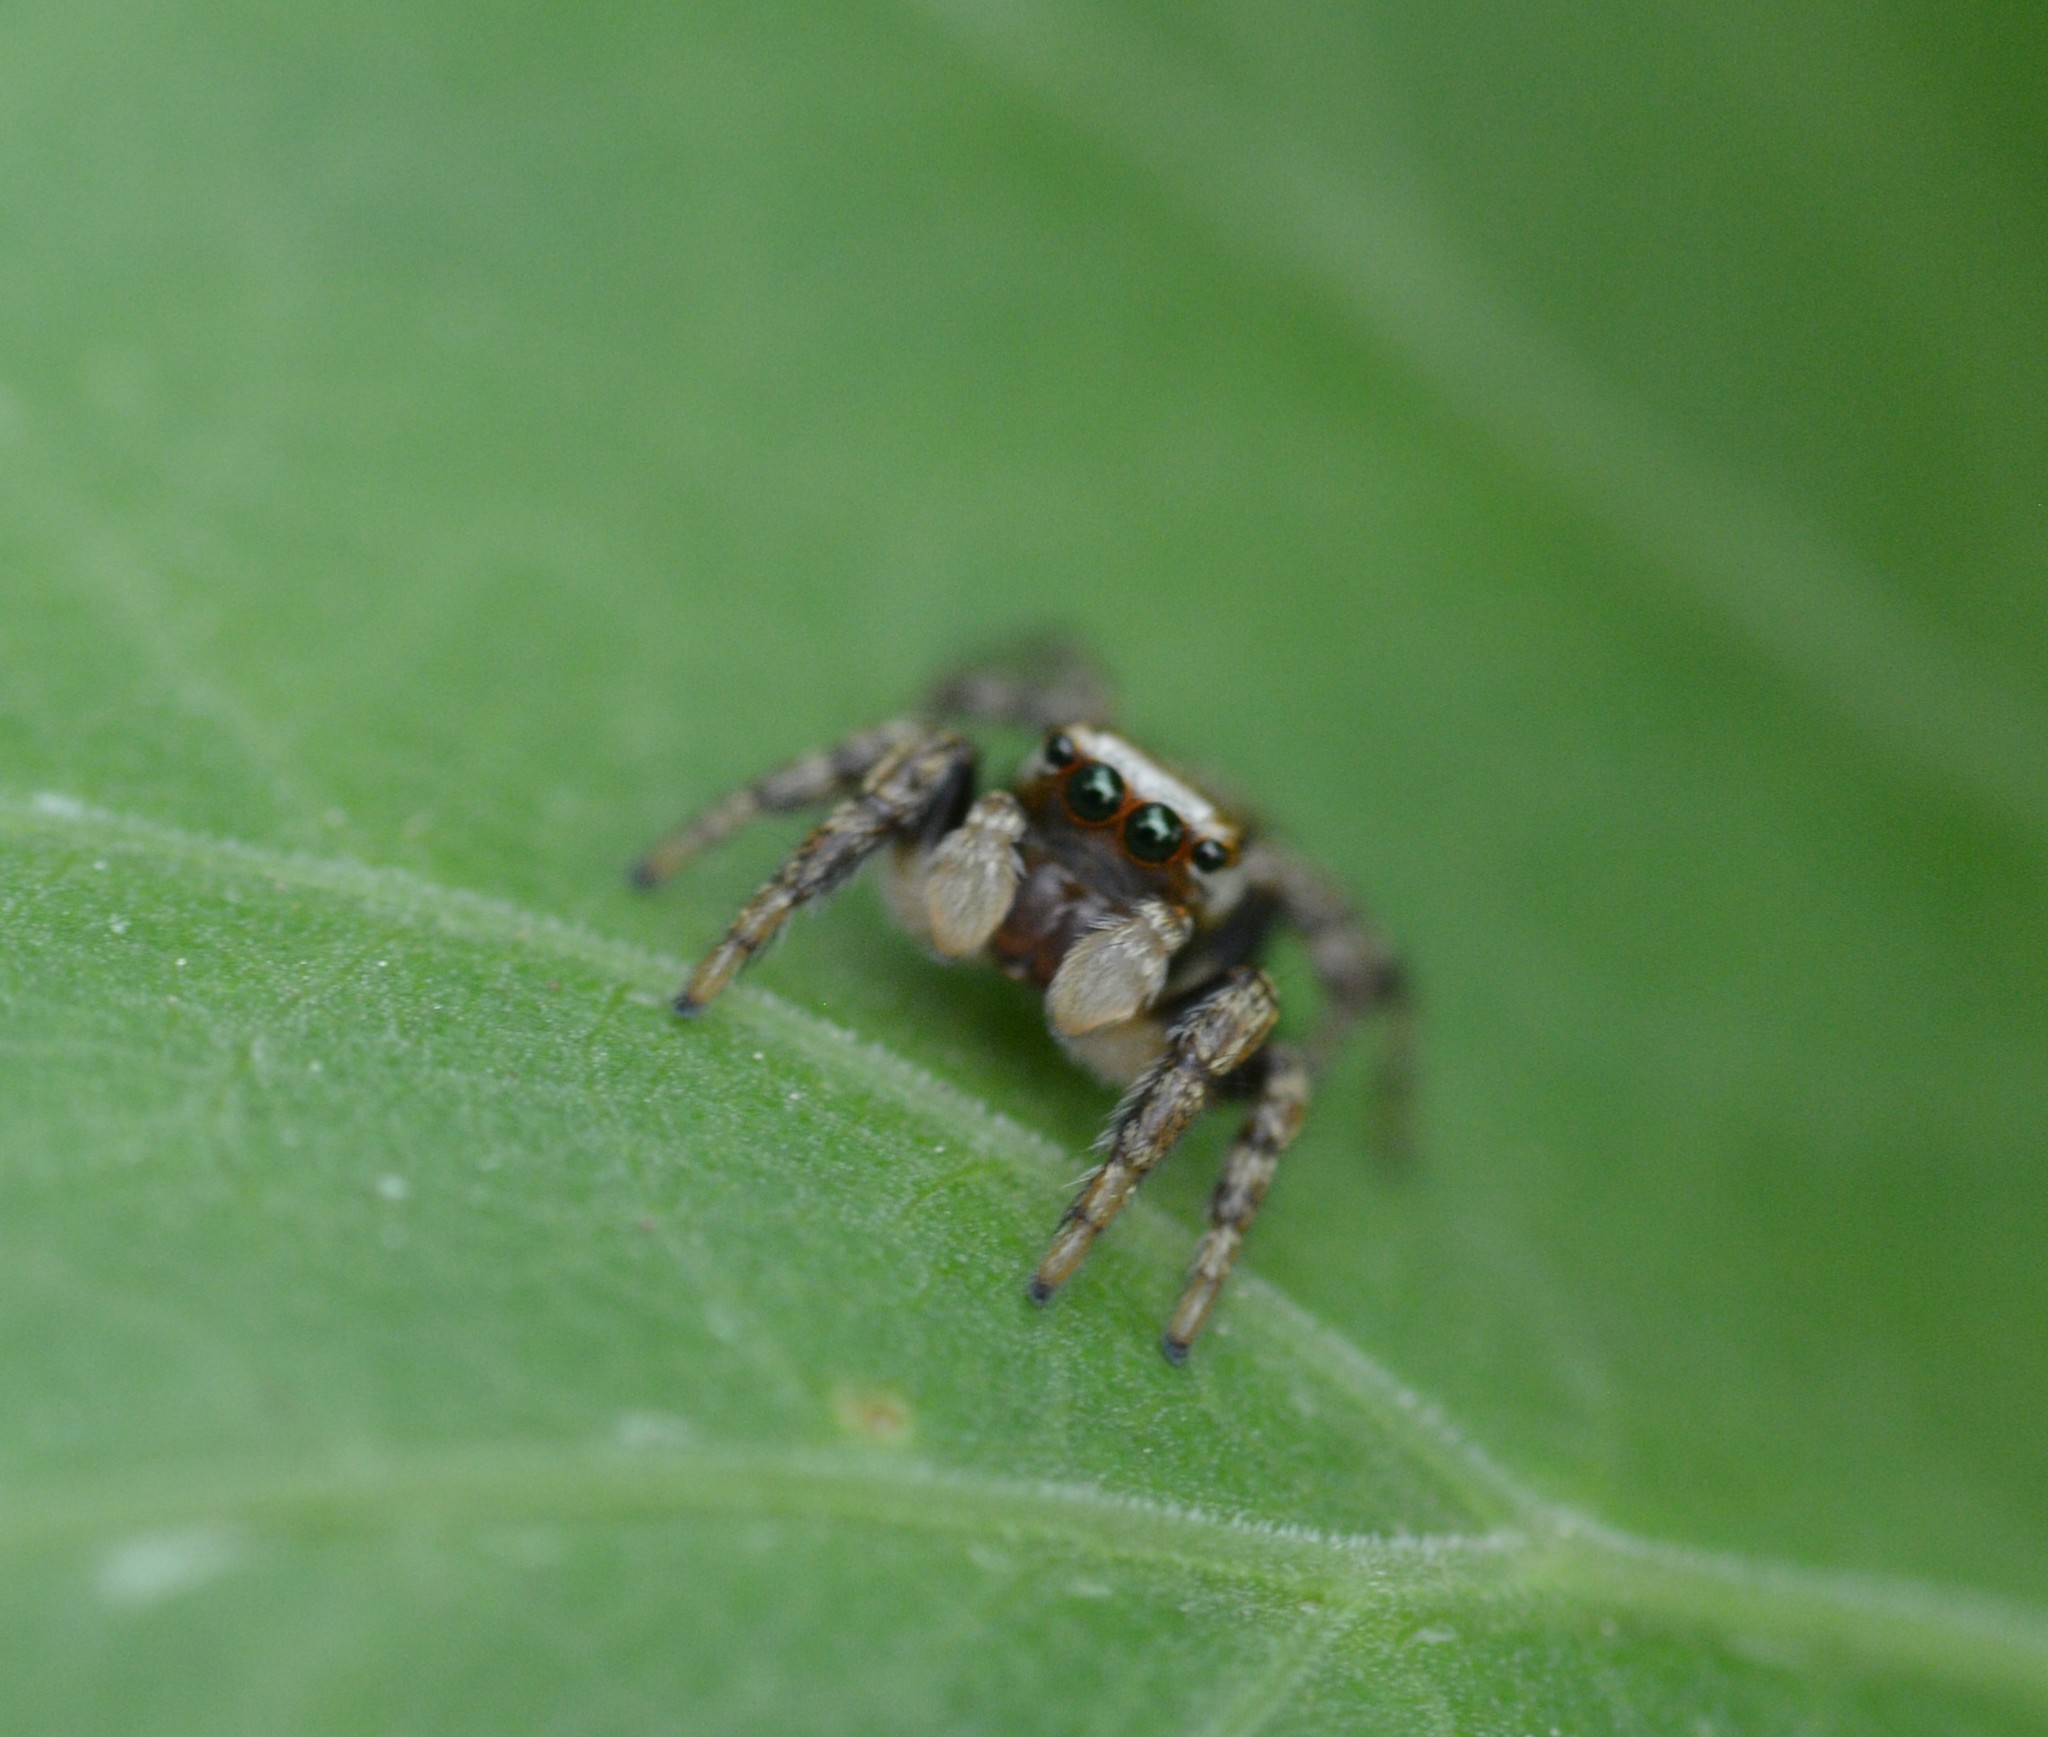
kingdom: Animalia
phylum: Arthropoda
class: Arachnida
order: Araneae
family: Salticidae
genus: Evarcha
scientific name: Evarcha hoyi
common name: Hoy's jumping spider
